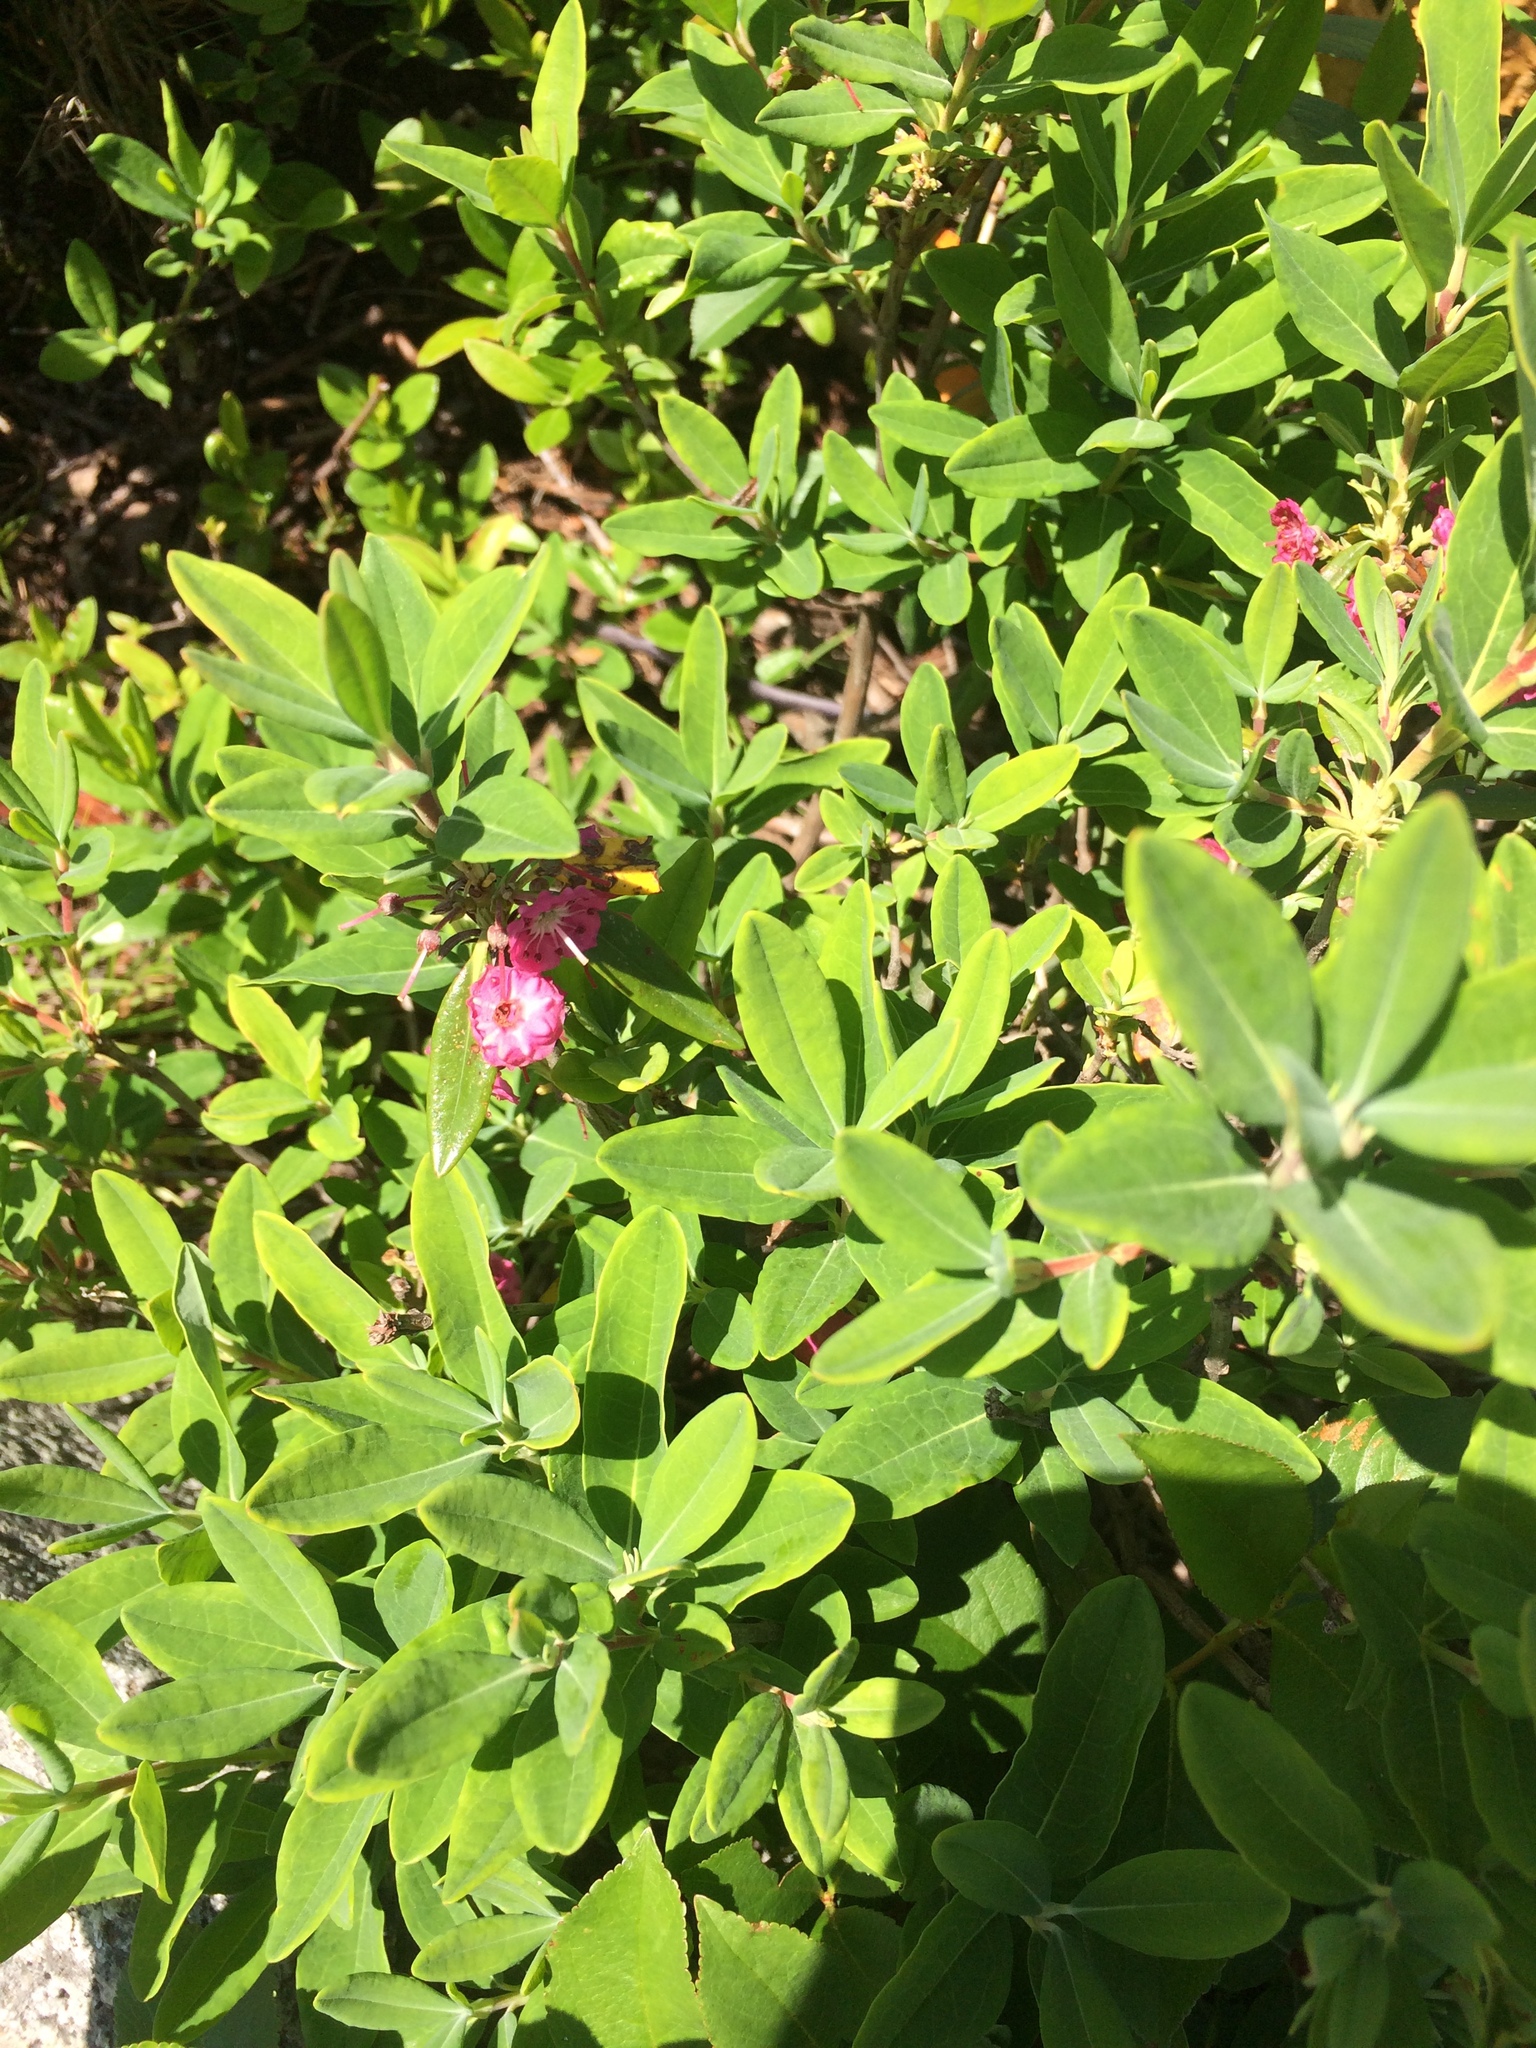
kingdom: Plantae
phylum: Tracheophyta
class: Magnoliopsida
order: Ericales
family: Ericaceae
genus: Kalmia
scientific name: Kalmia angustifolia
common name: Sheep-laurel
